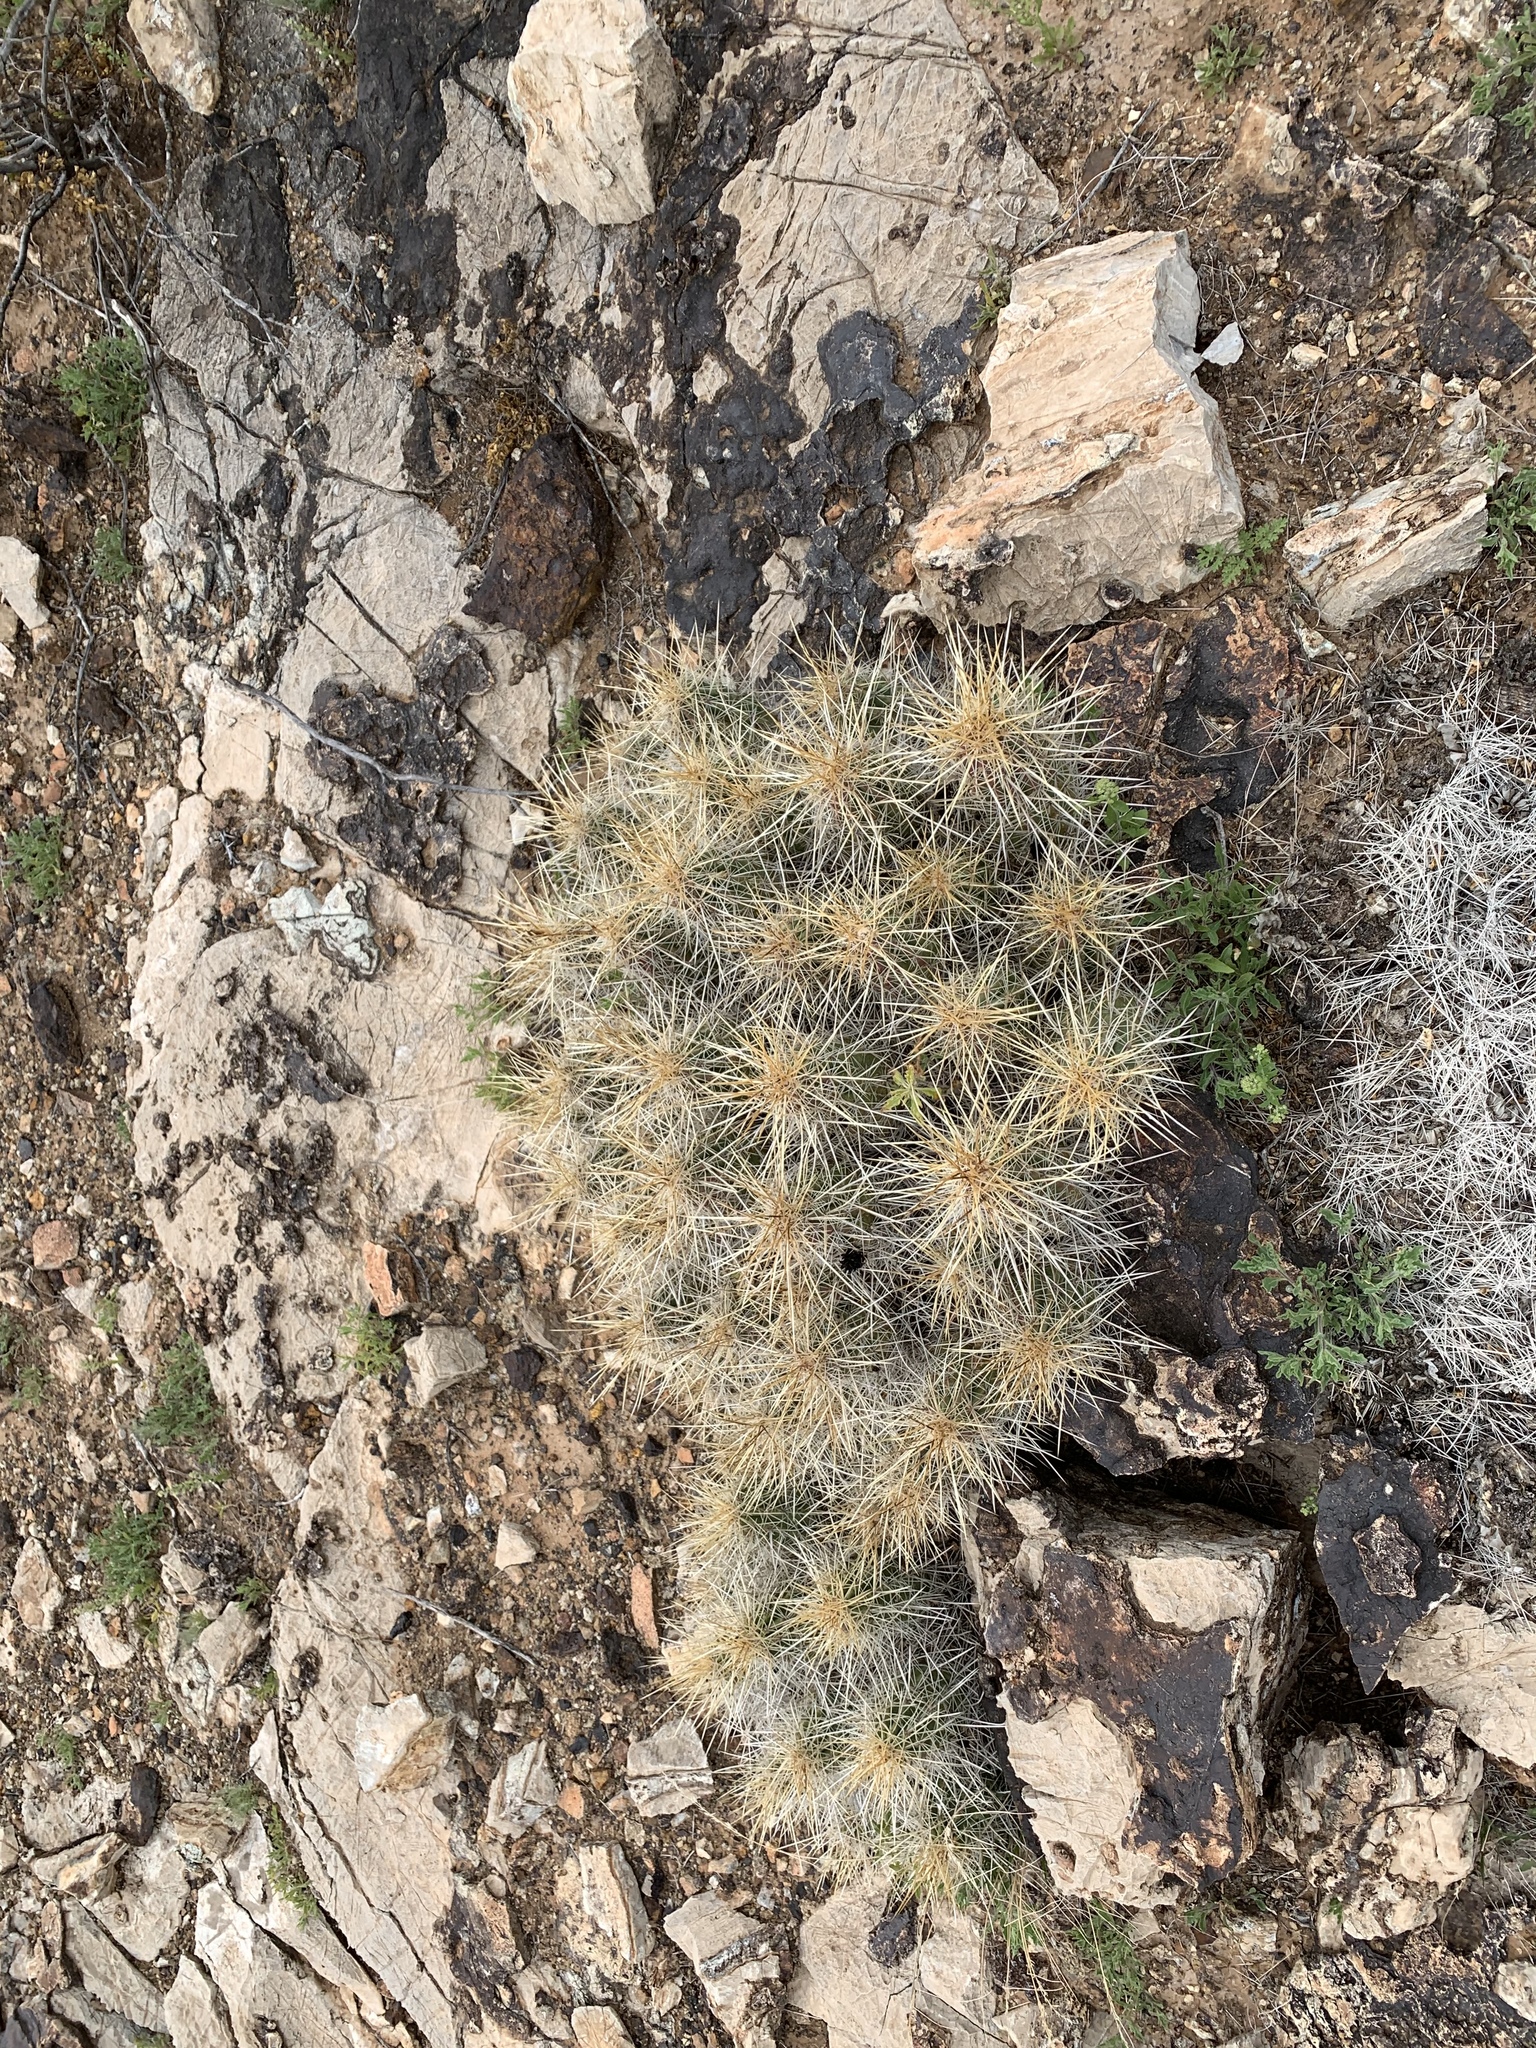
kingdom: Plantae
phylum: Tracheophyta
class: Magnoliopsida
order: Caryophyllales
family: Cactaceae
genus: Echinocereus
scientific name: Echinocereus stramineus
